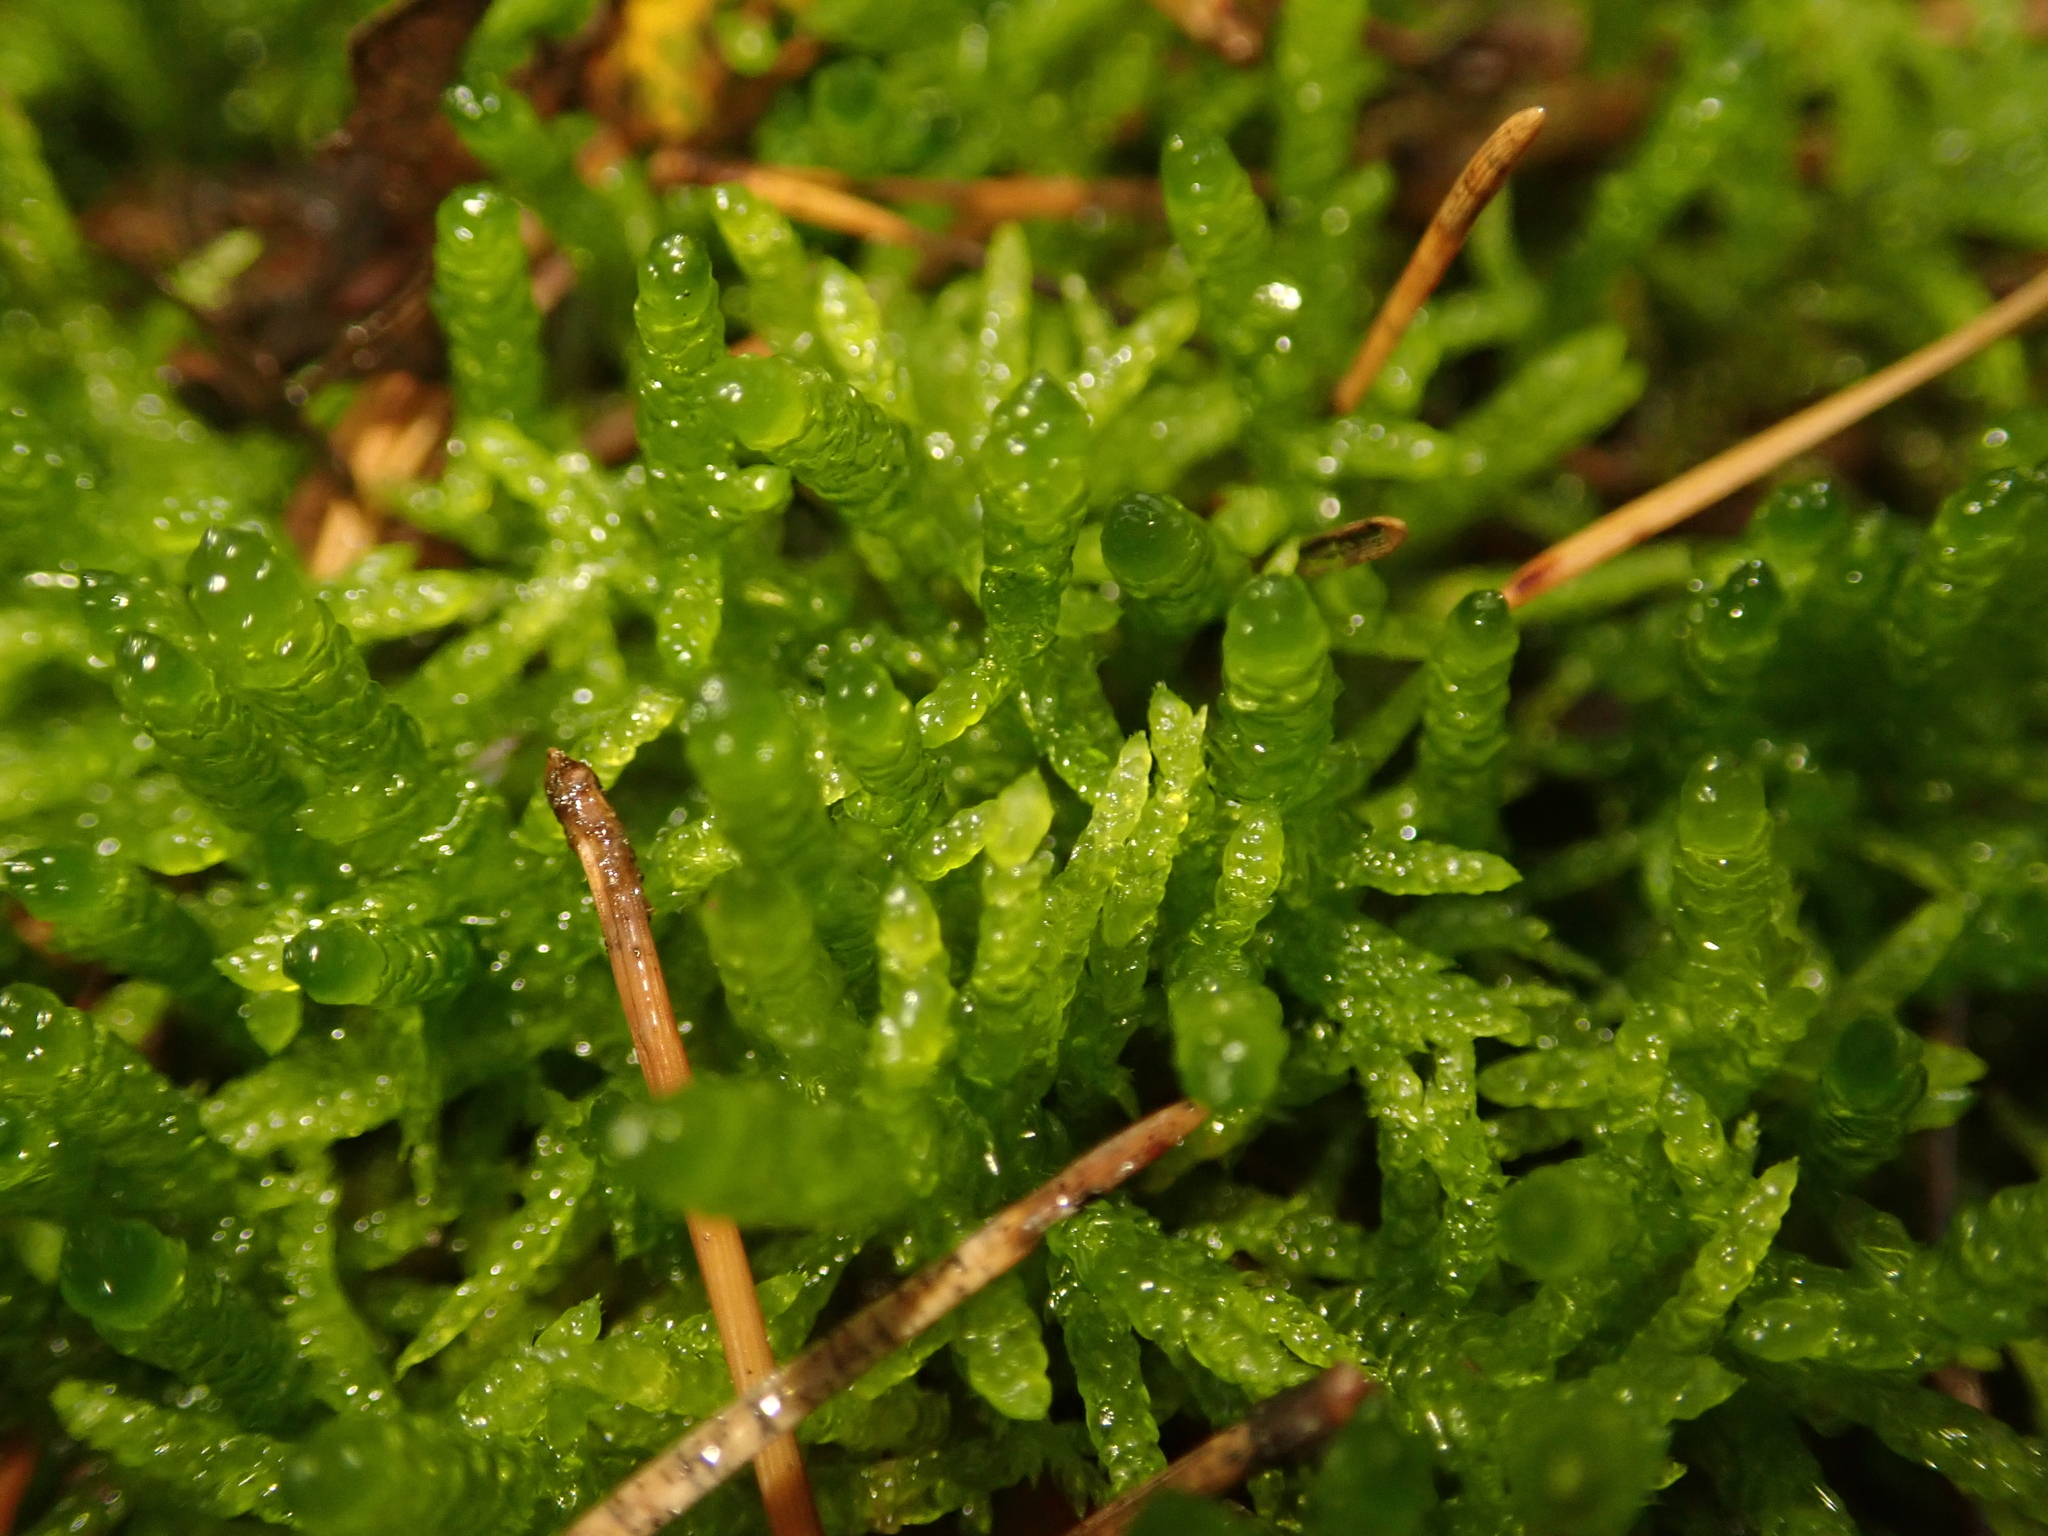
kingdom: Plantae
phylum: Bryophyta
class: Bryopsida
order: Hypnales
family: Brachytheciaceae
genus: Pseudoscleropodium
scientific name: Pseudoscleropodium purum
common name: Neat feather-moss
